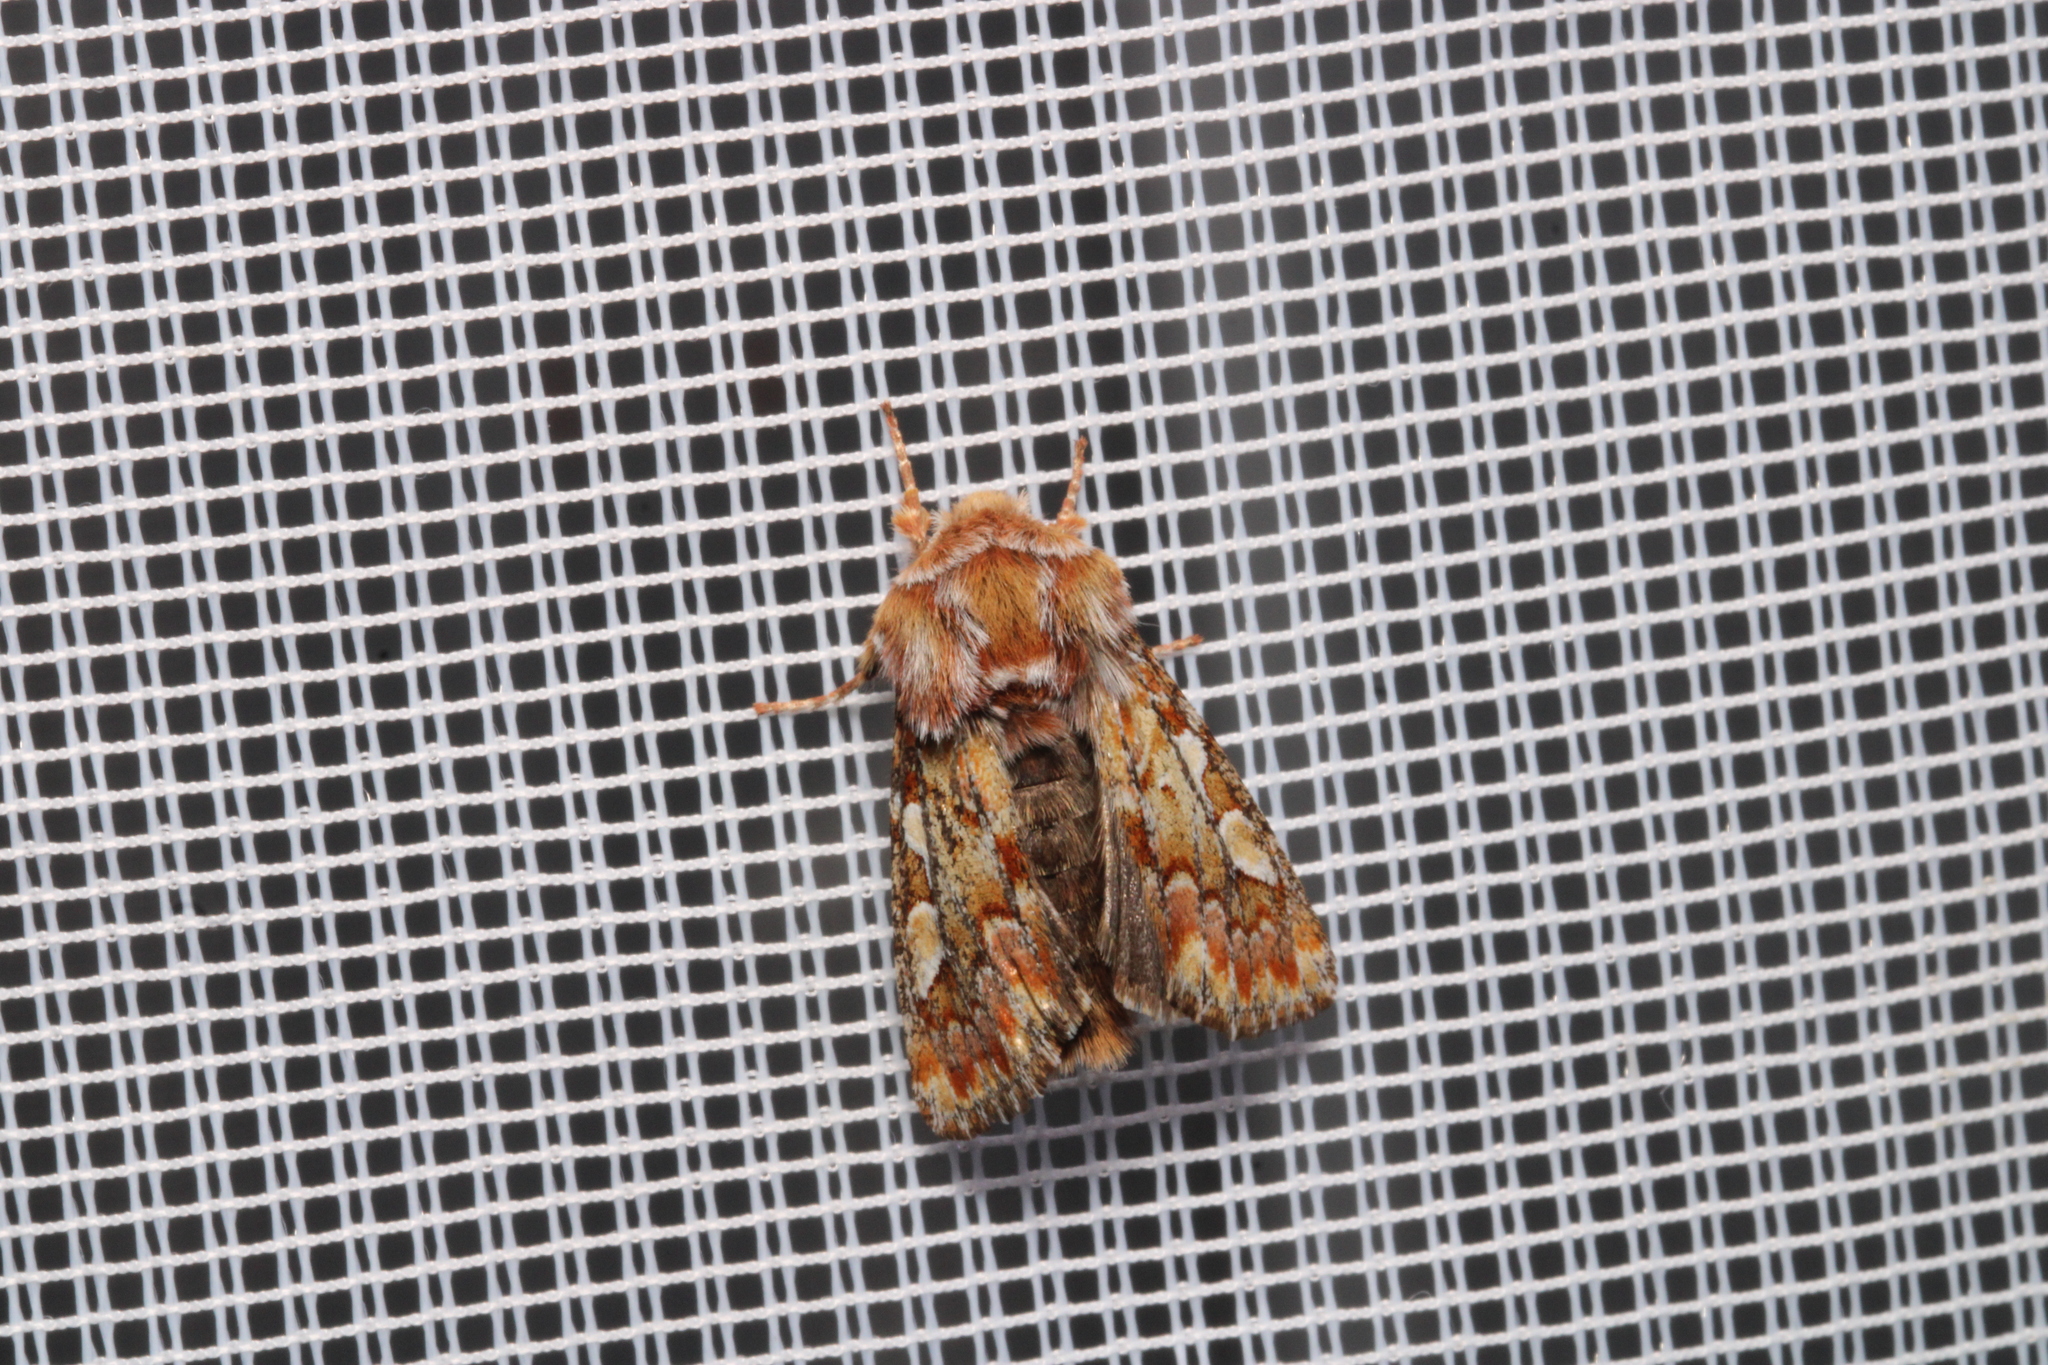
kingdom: Animalia
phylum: Arthropoda
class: Insecta
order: Lepidoptera
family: Noctuidae
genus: Panolis
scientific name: Panolis flammea
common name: Pine beauty
